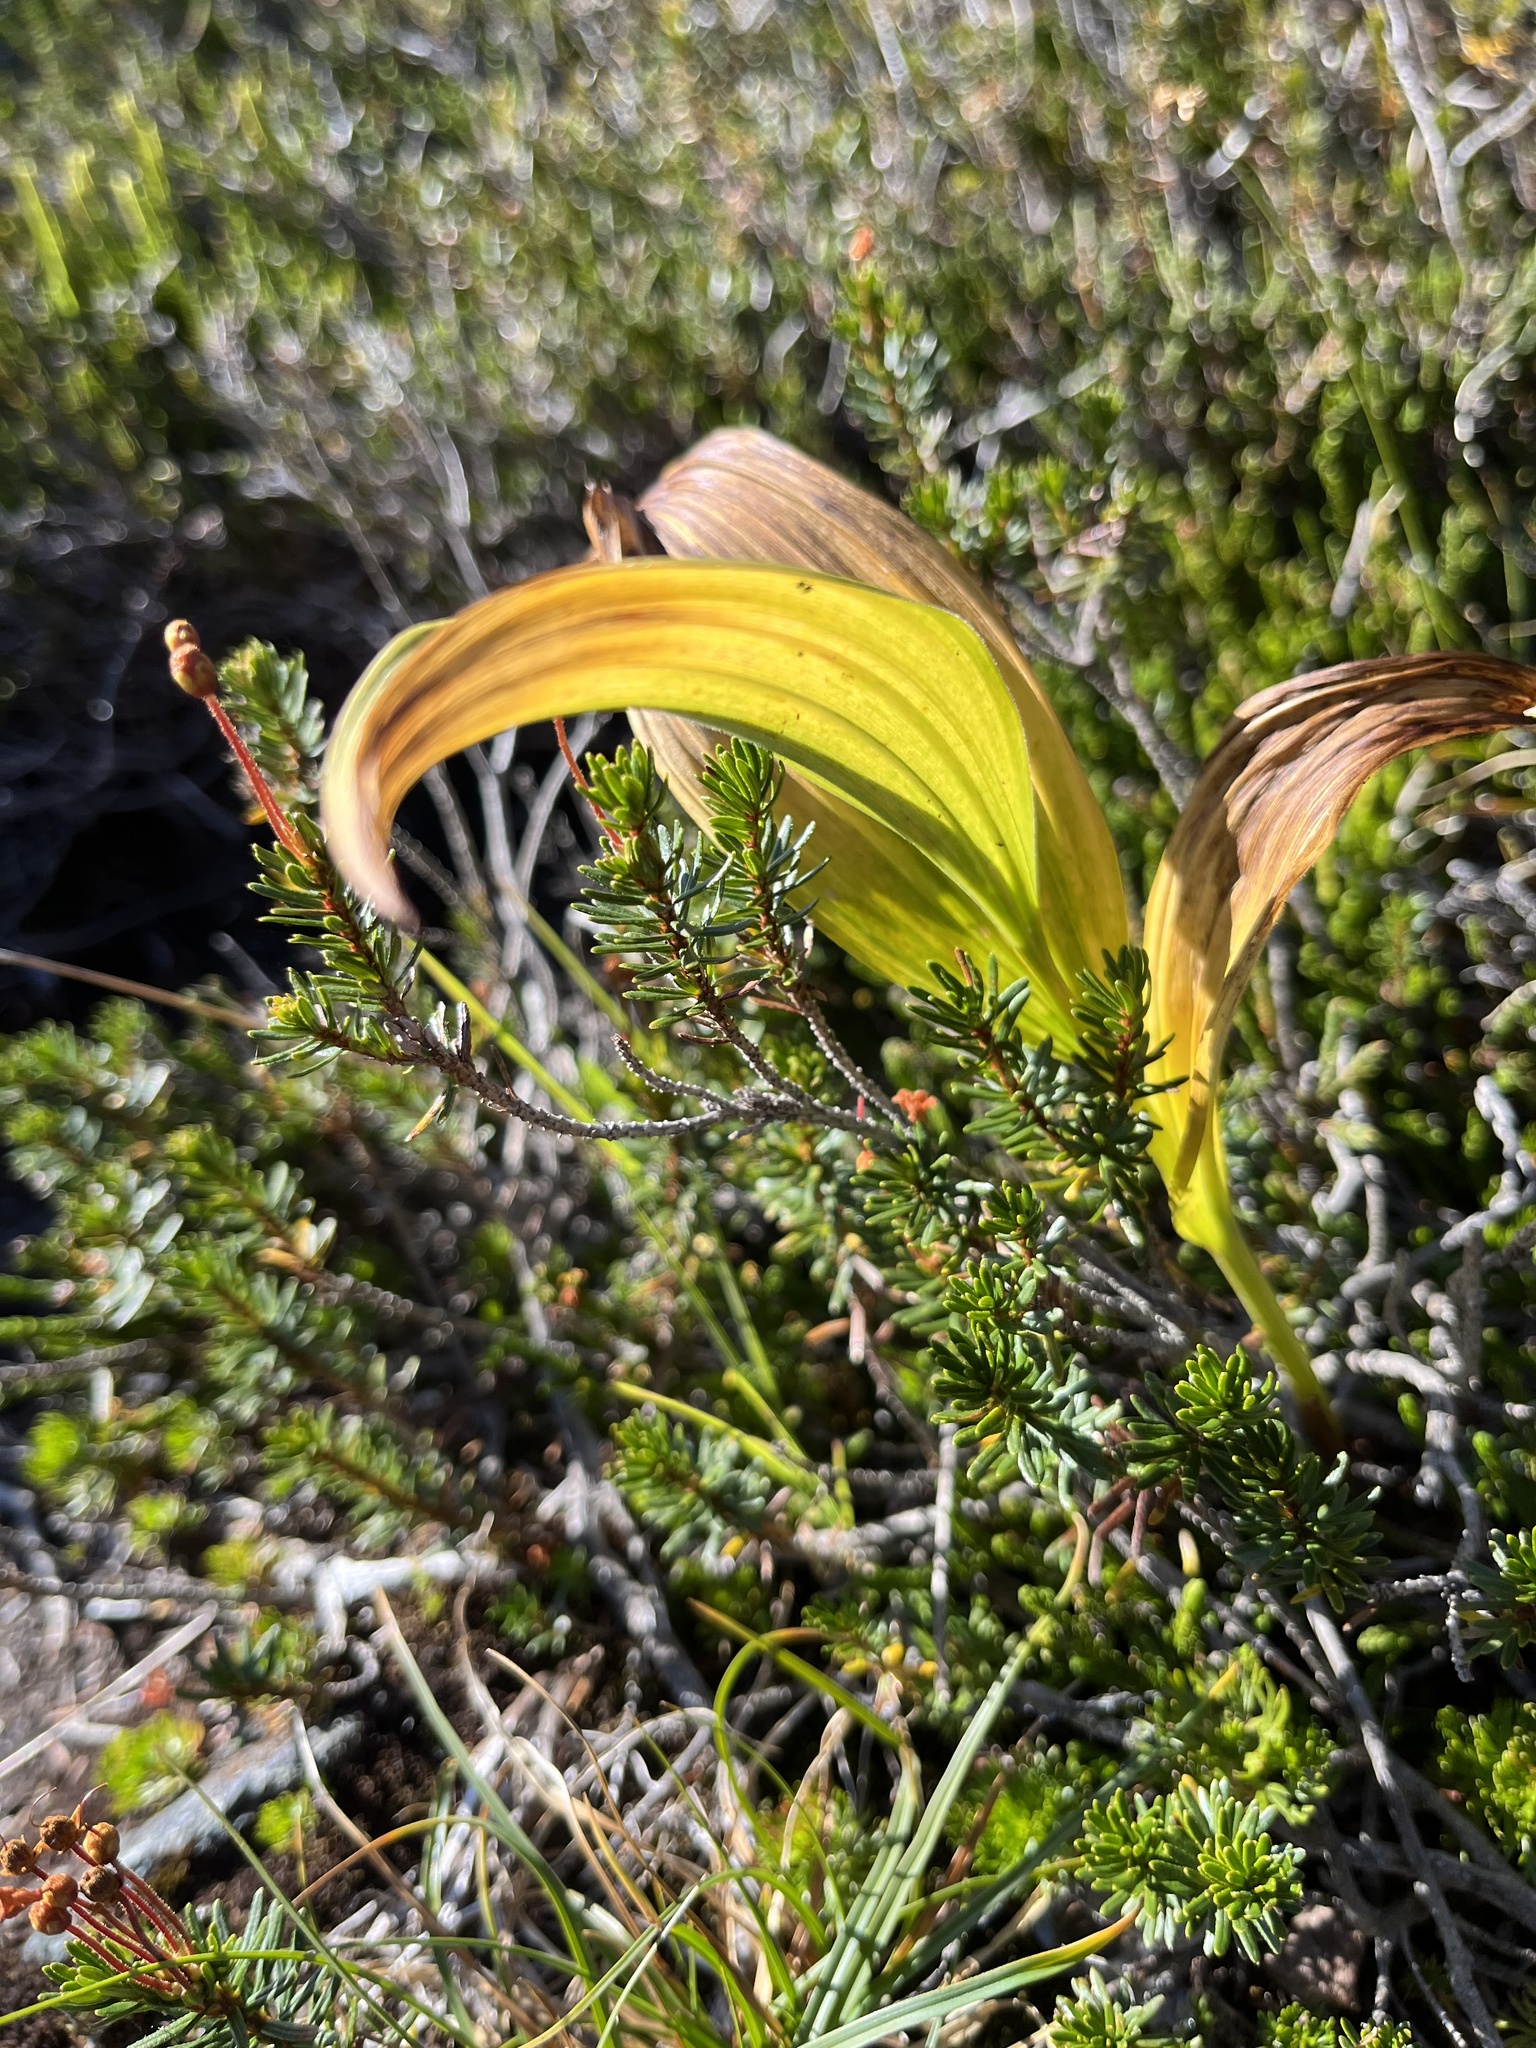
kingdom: Plantae
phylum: Tracheophyta
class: Liliopsida
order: Liliales
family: Melanthiaceae
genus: Veratrum
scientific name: Veratrum viride
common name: American false hellebore
